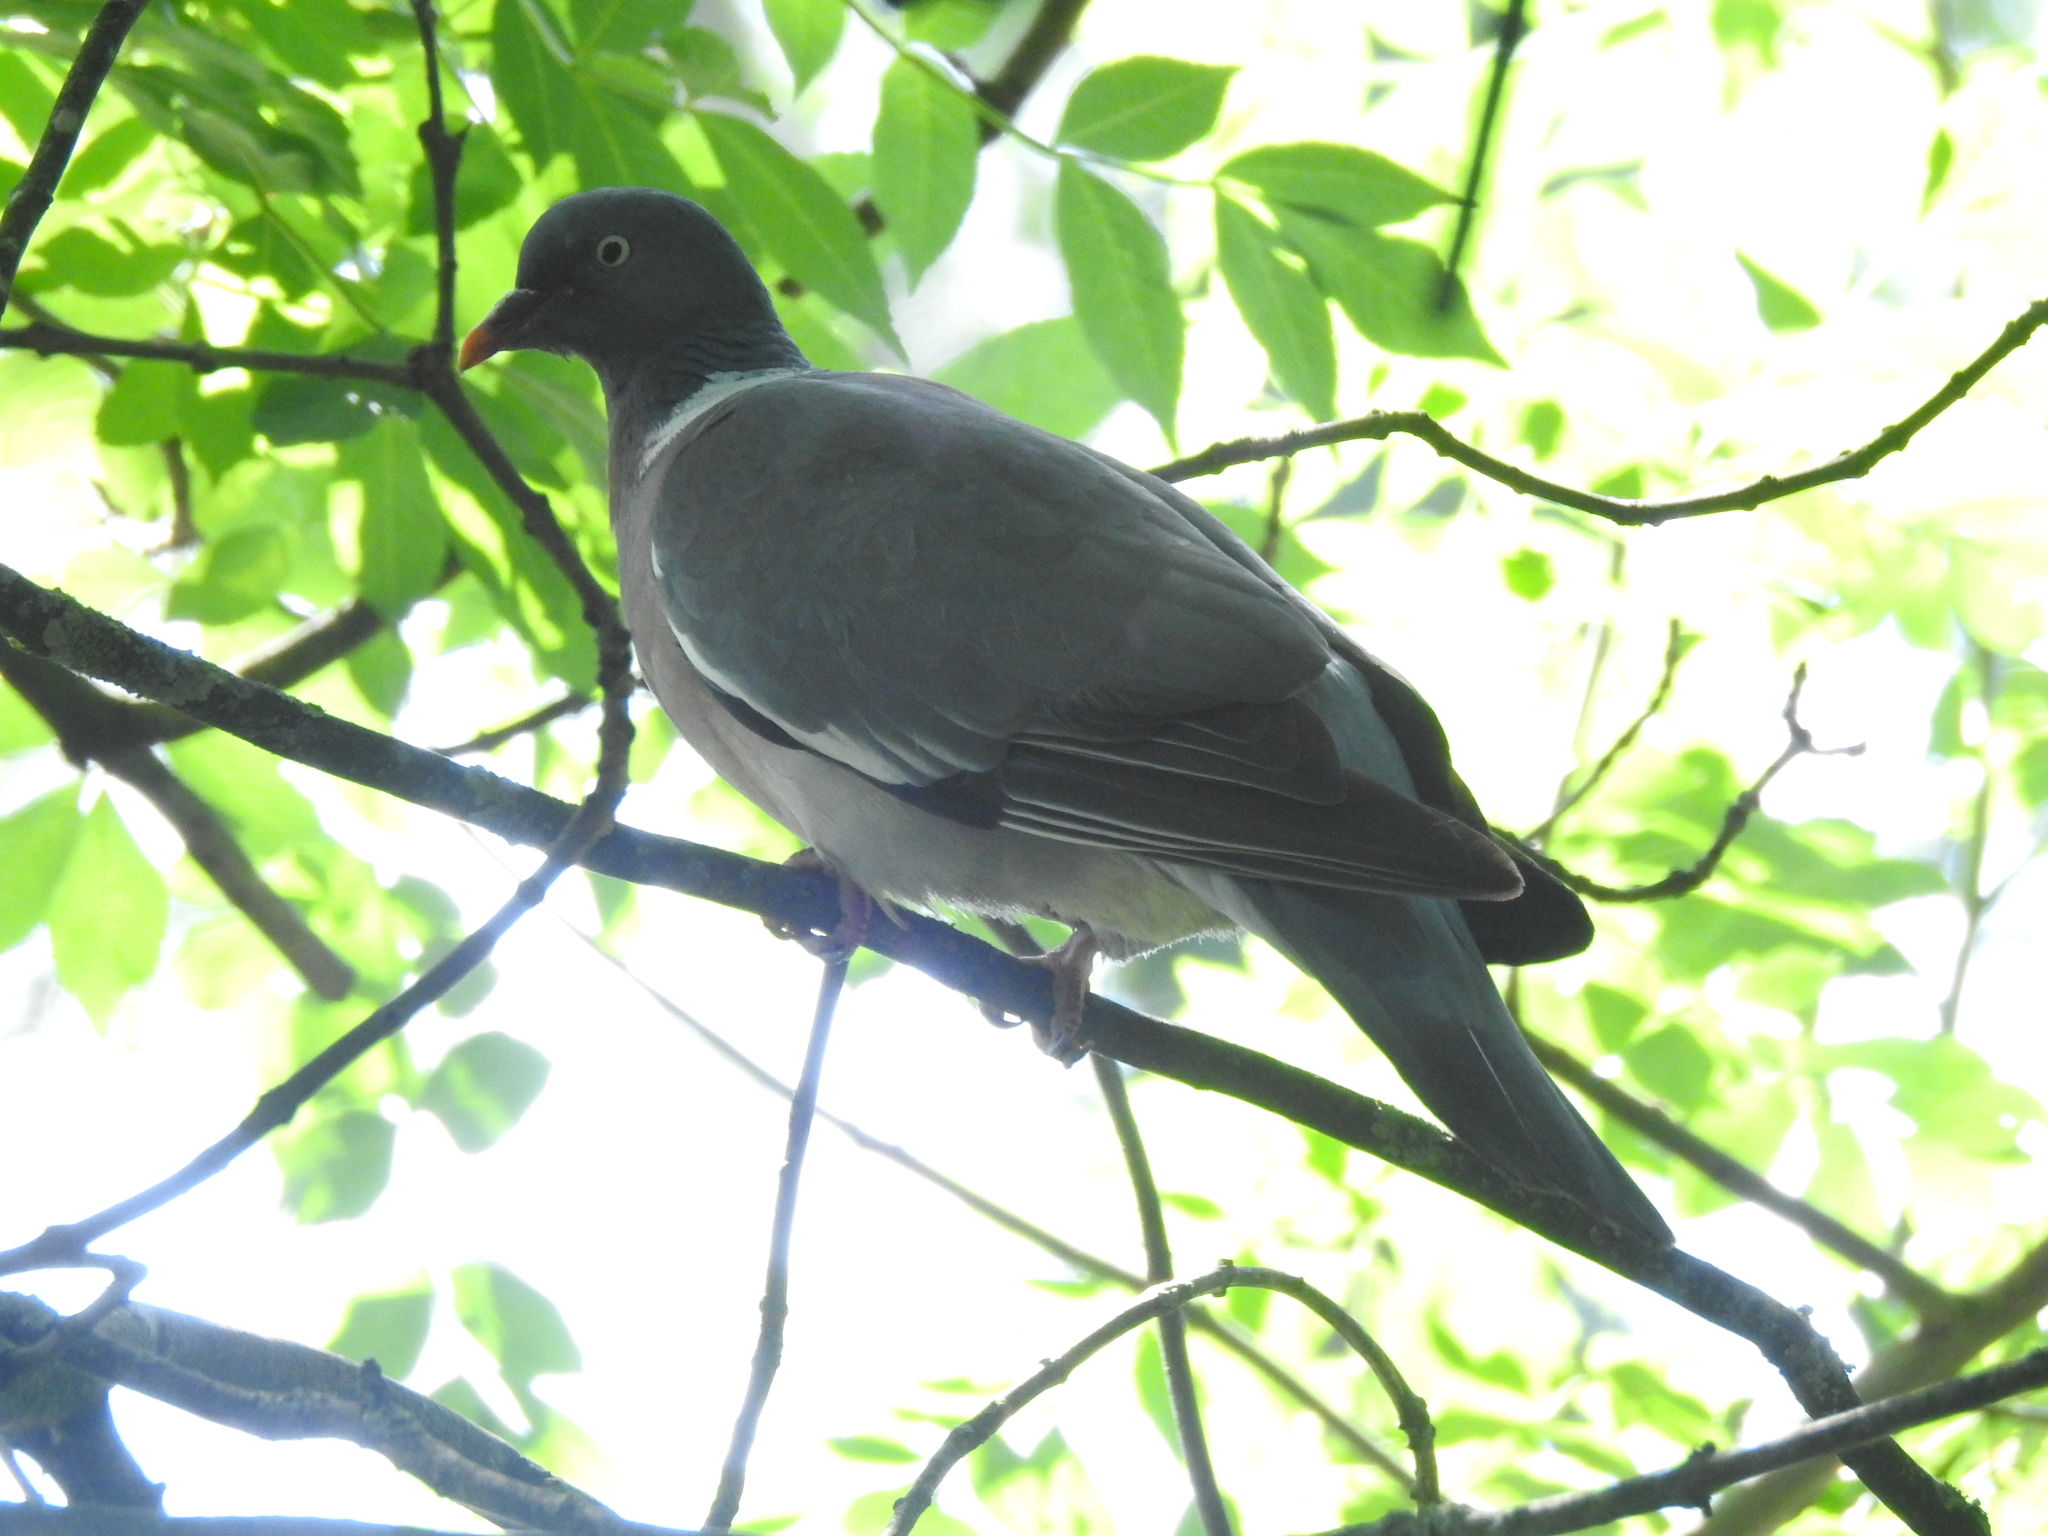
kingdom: Animalia
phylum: Chordata
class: Aves
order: Columbiformes
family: Columbidae
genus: Columba
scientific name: Columba palumbus
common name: Common wood pigeon
